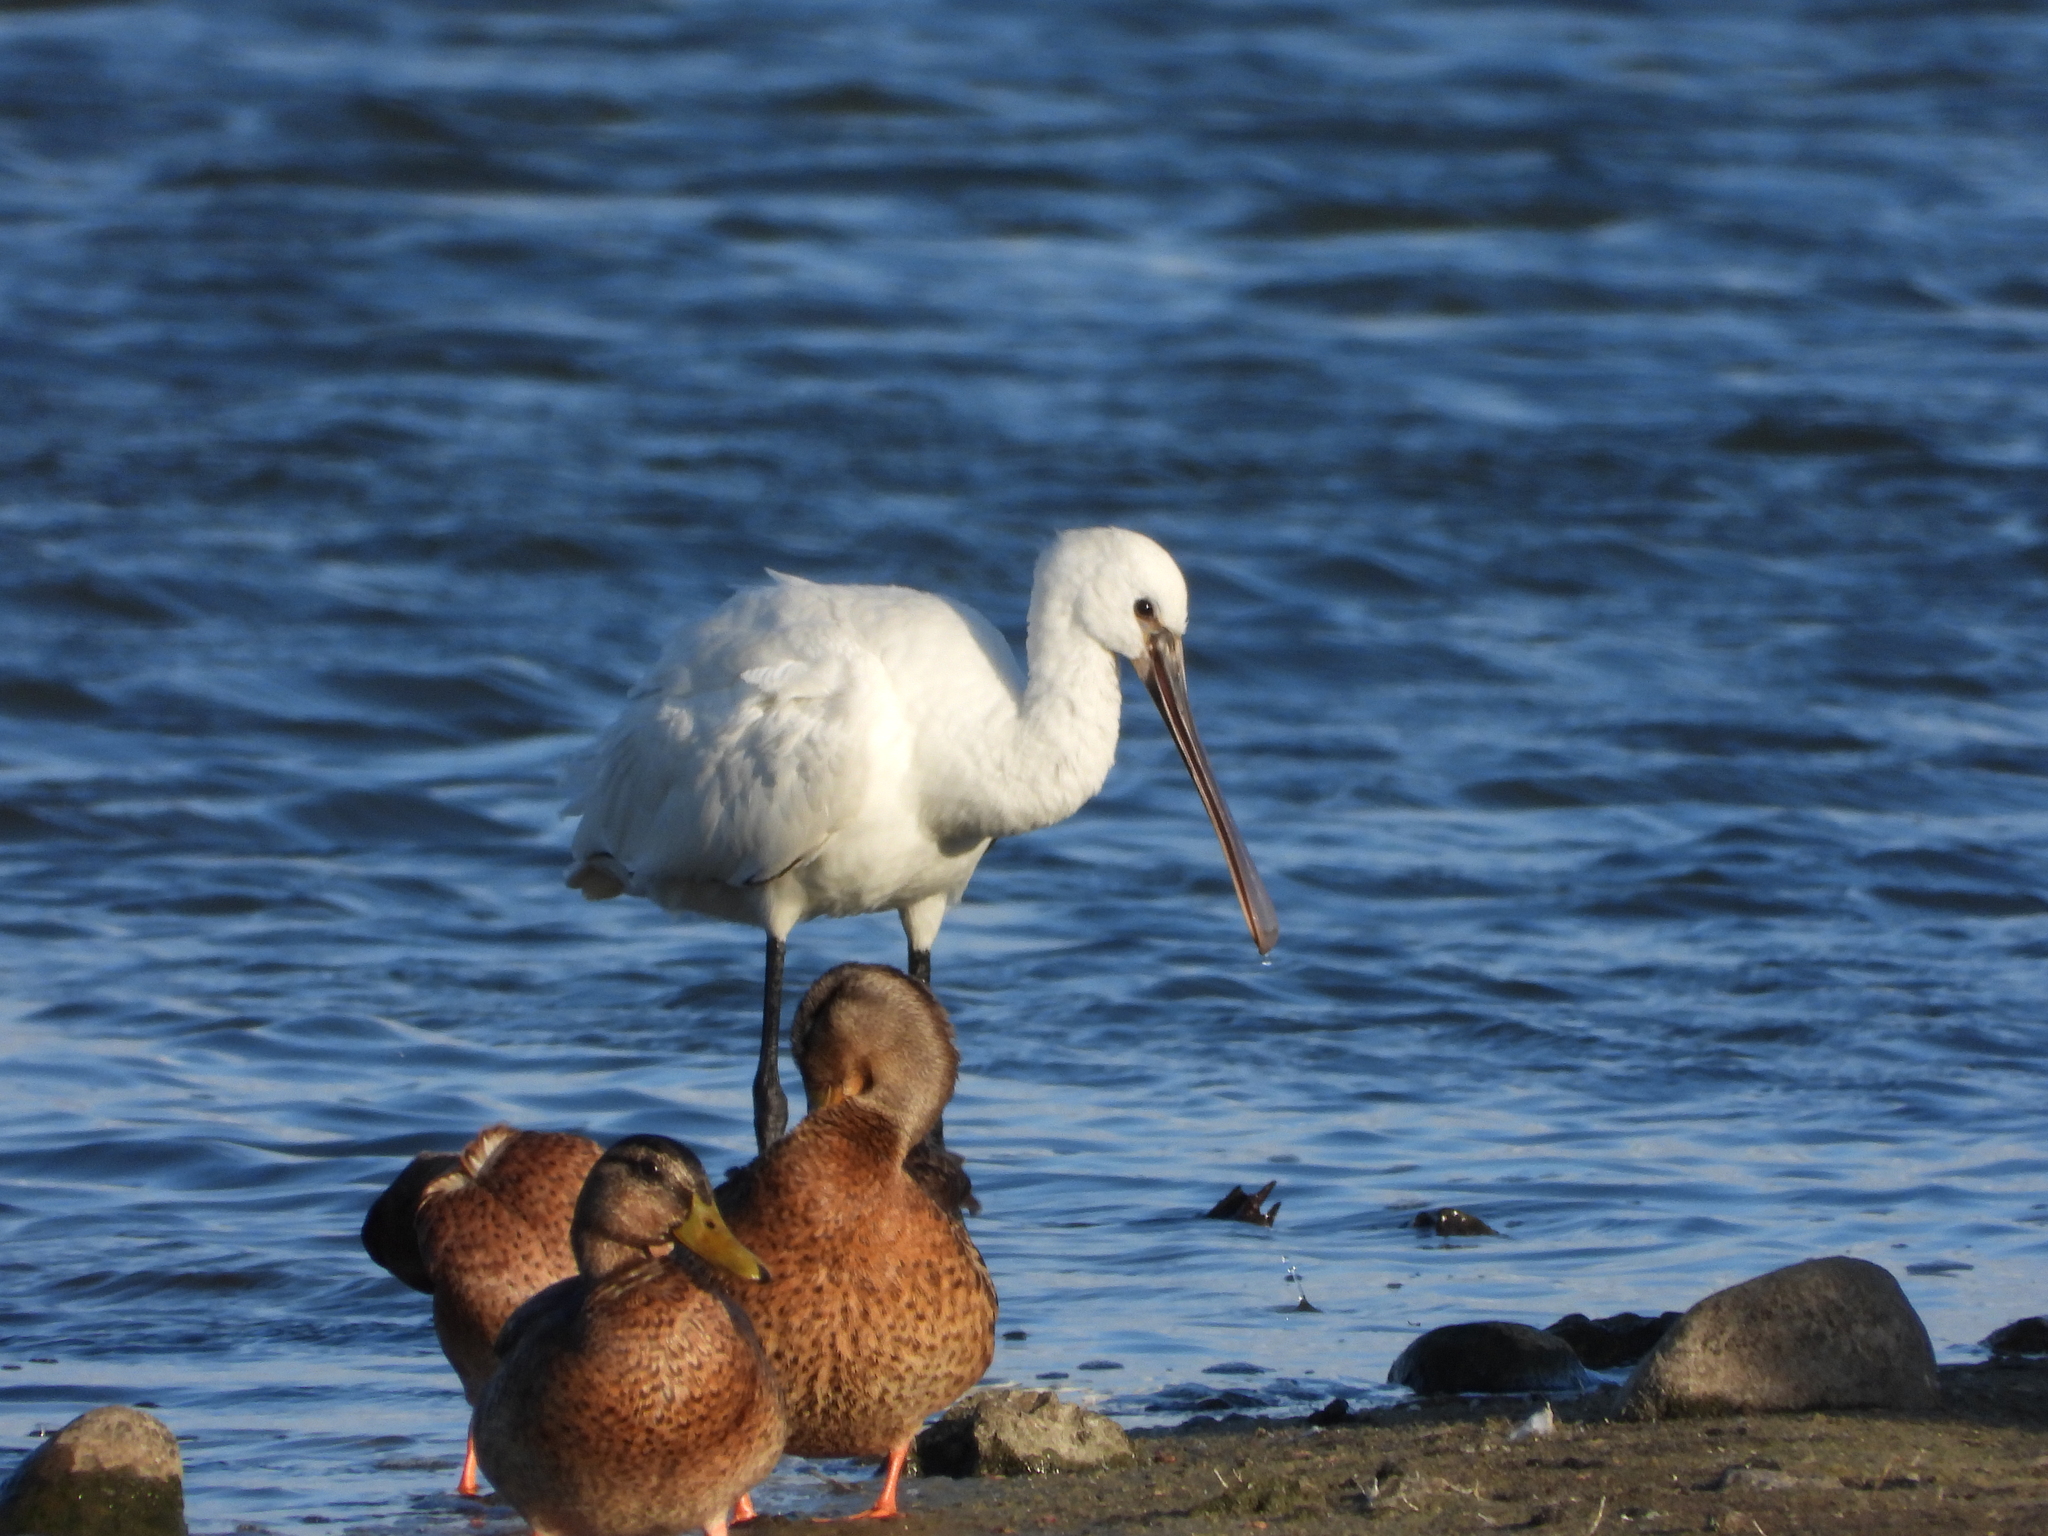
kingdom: Animalia
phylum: Chordata
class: Aves
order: Pelecaniformes
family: Threskiornithidae
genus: Platalea
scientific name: Platalea leucorodia
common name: Eurasian spoonbill
